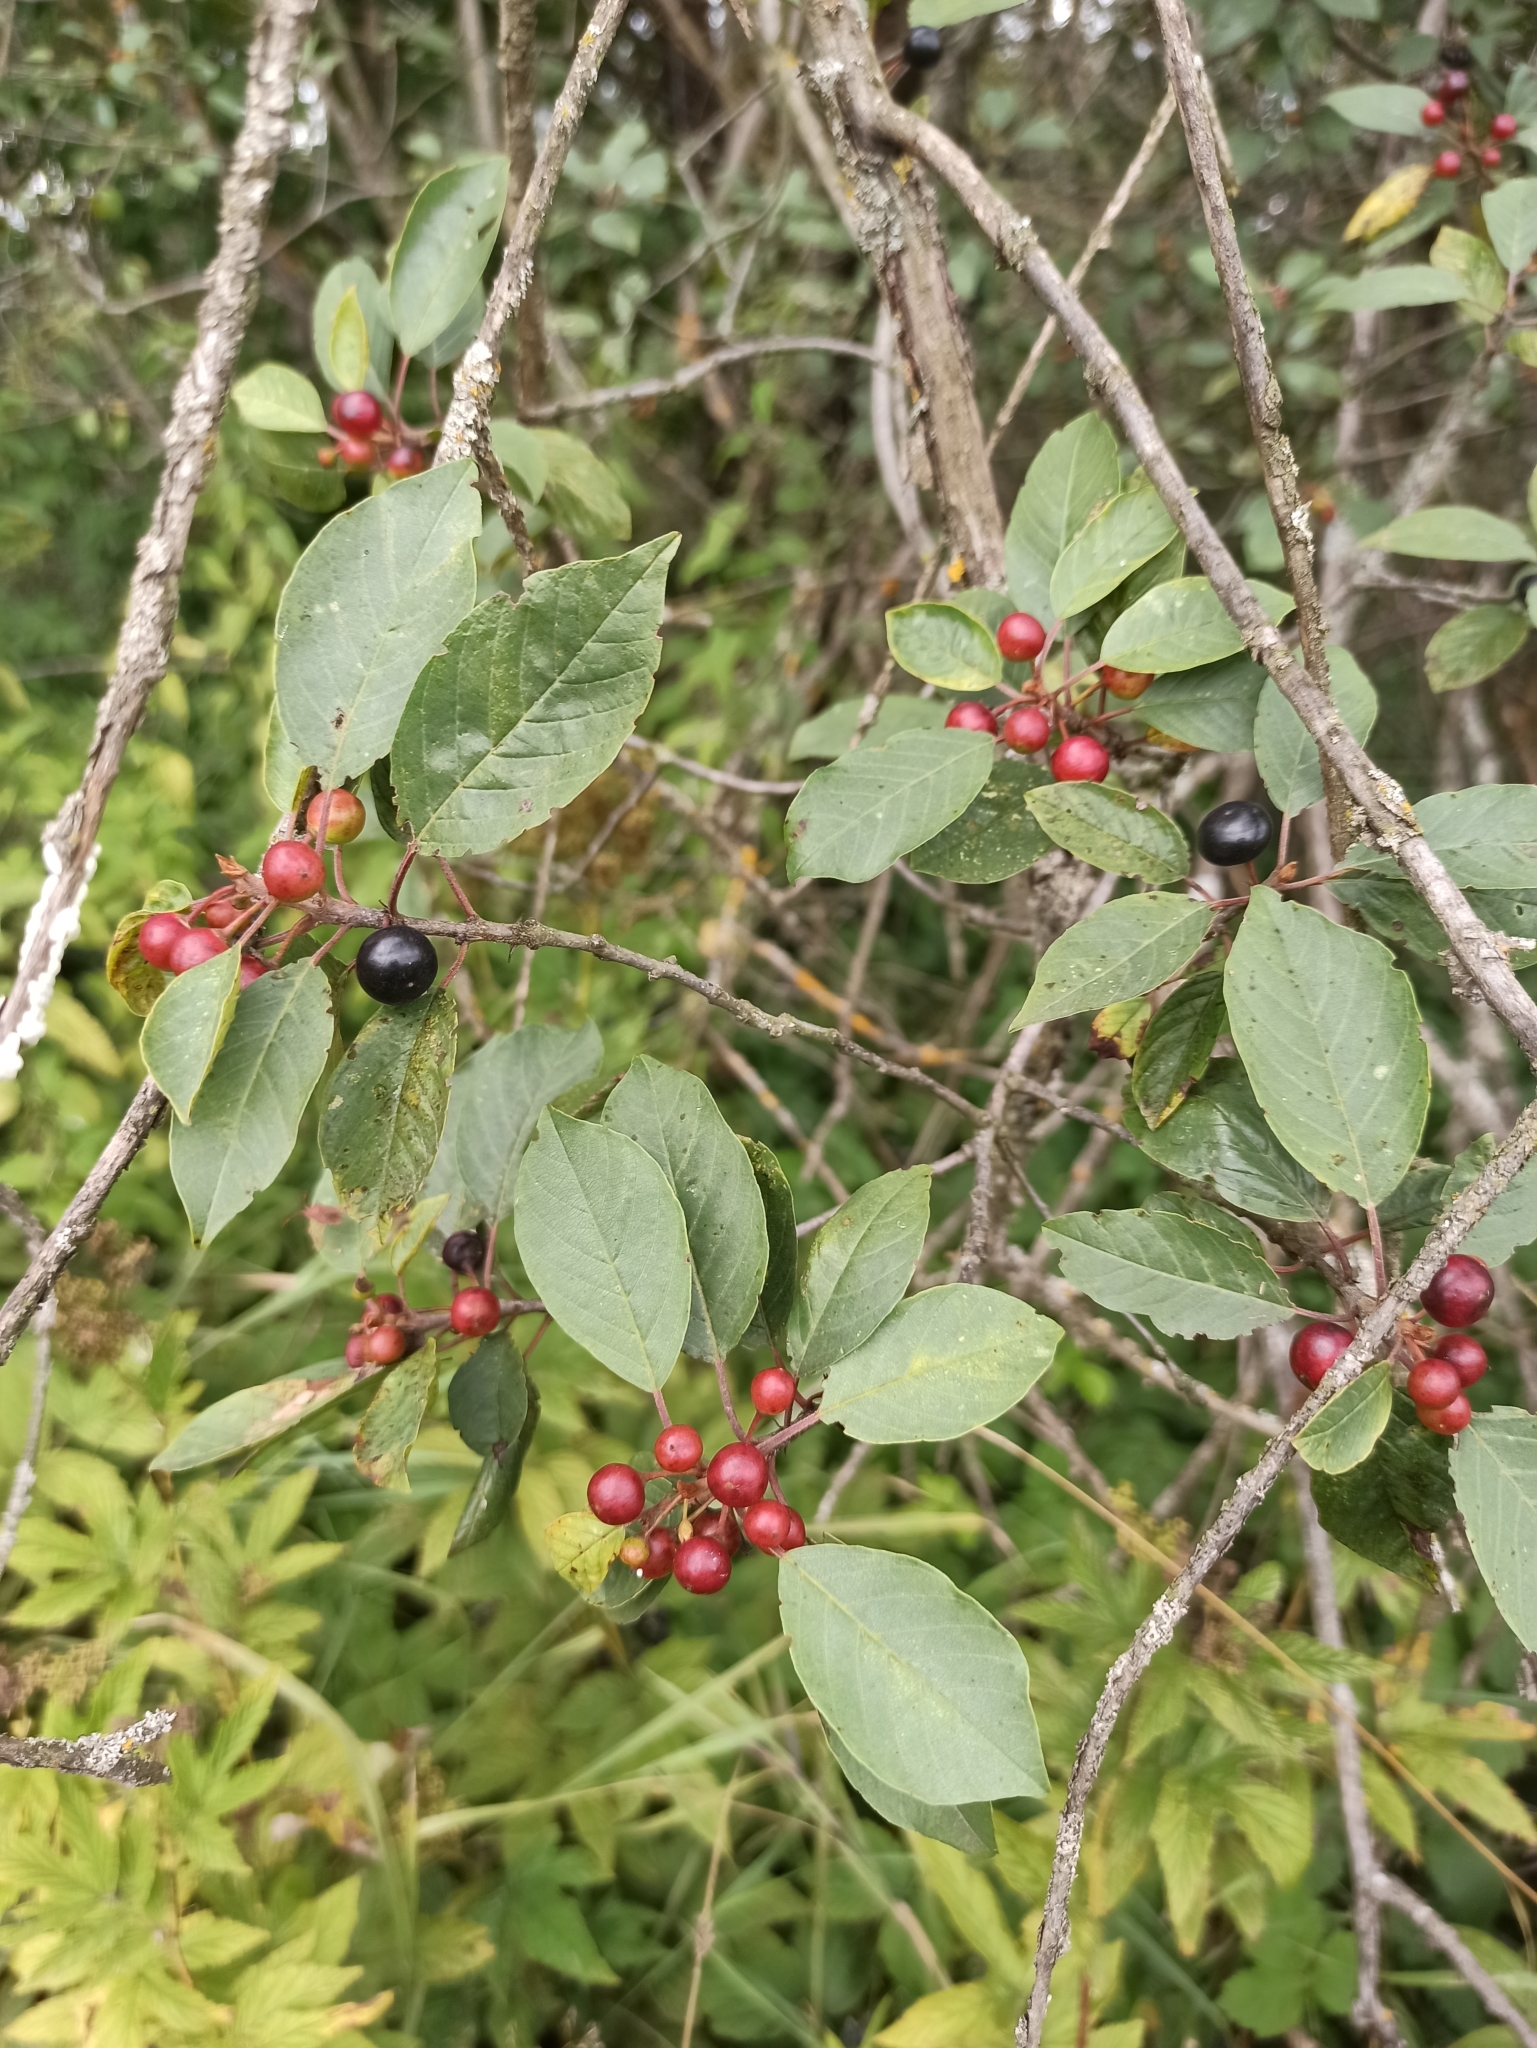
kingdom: Plantae
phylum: Tracheophyta
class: Magnoliopsida
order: Rosales
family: Rhamnaceae
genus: Frangula
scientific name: Frangula alnus
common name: Alder buckthorn
